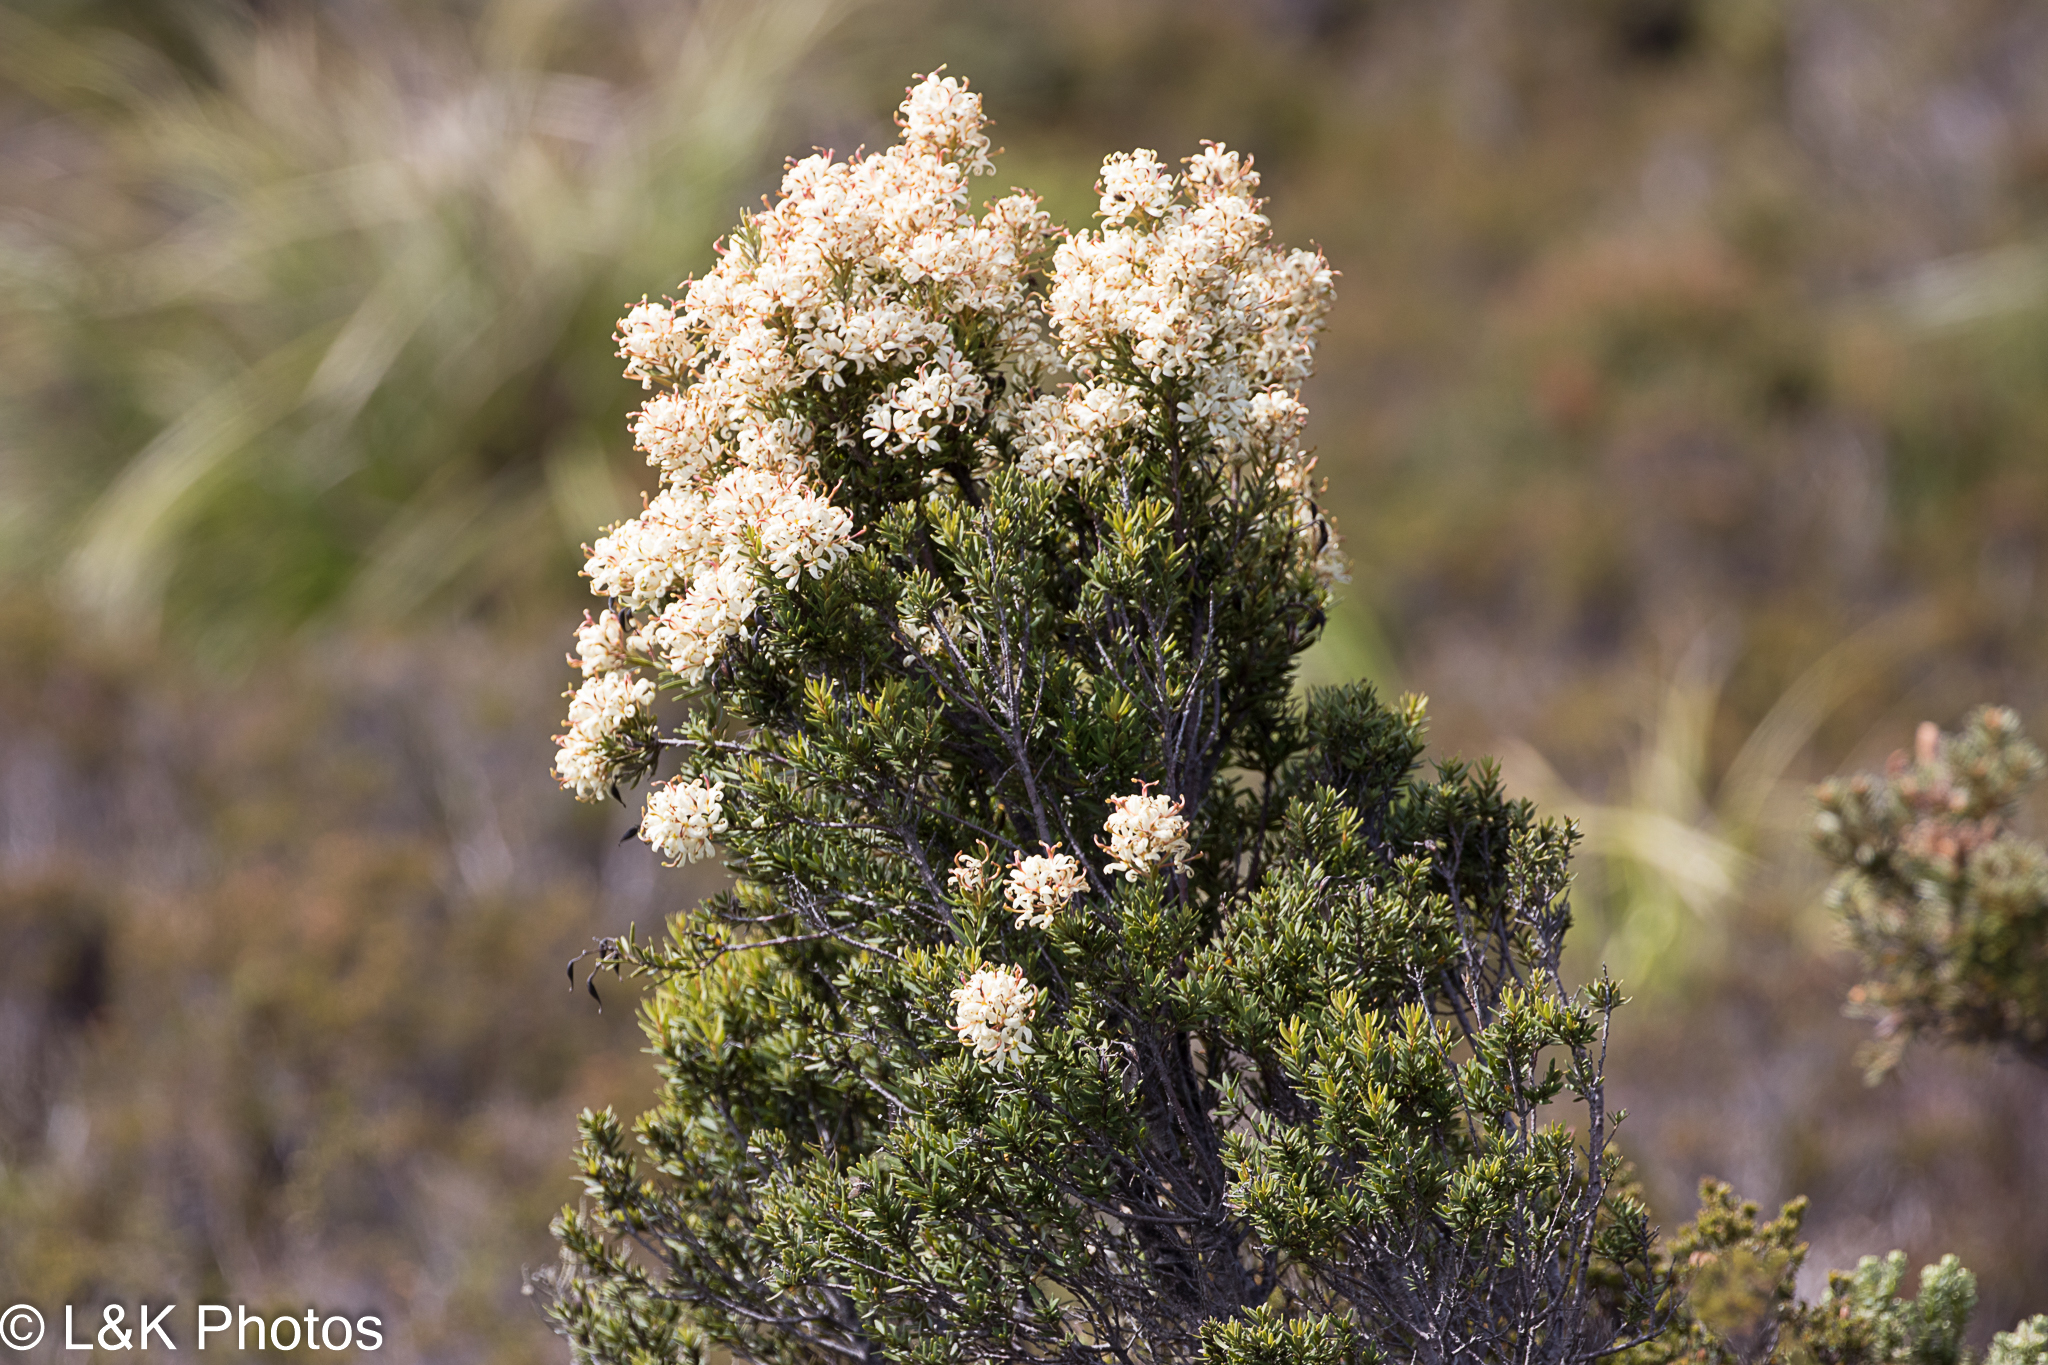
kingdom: Plantae
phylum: Tracheophyta
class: Magnoliopsida
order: Proteales
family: Proteaceae
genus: Lomatia
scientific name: Lomatia polymorpha
